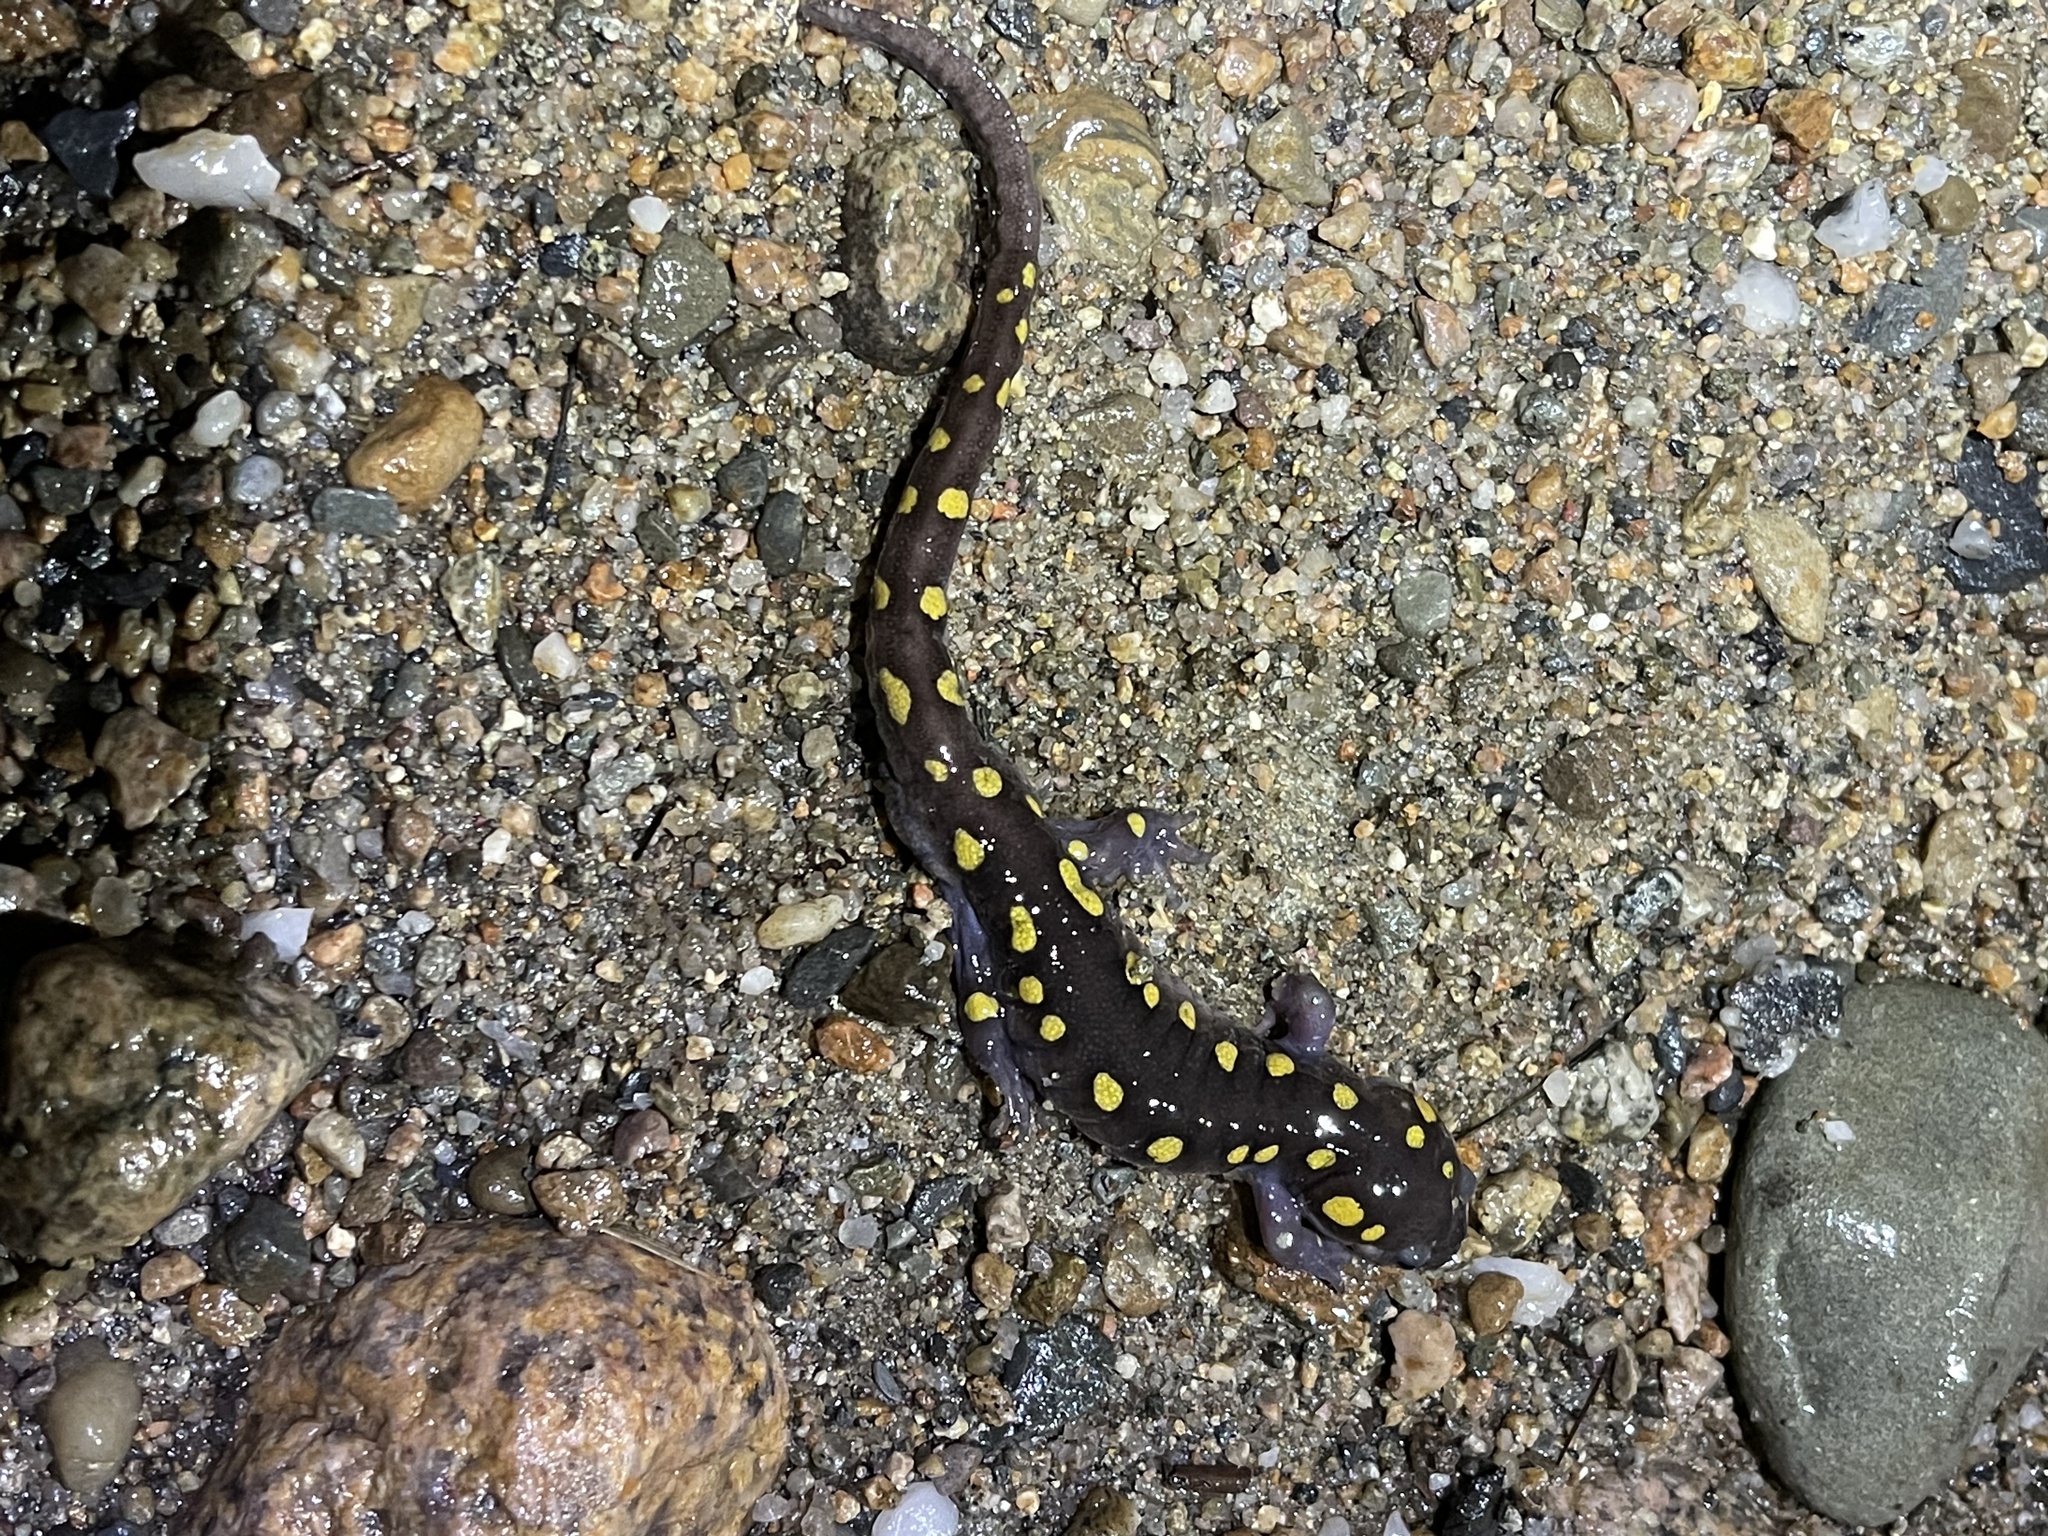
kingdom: Animalia
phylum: Chordata
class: Amphibia
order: Caudata
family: Ambystomatidae
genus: Ambystoma
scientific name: Ambystoma maculatum
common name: Spotted salamander
